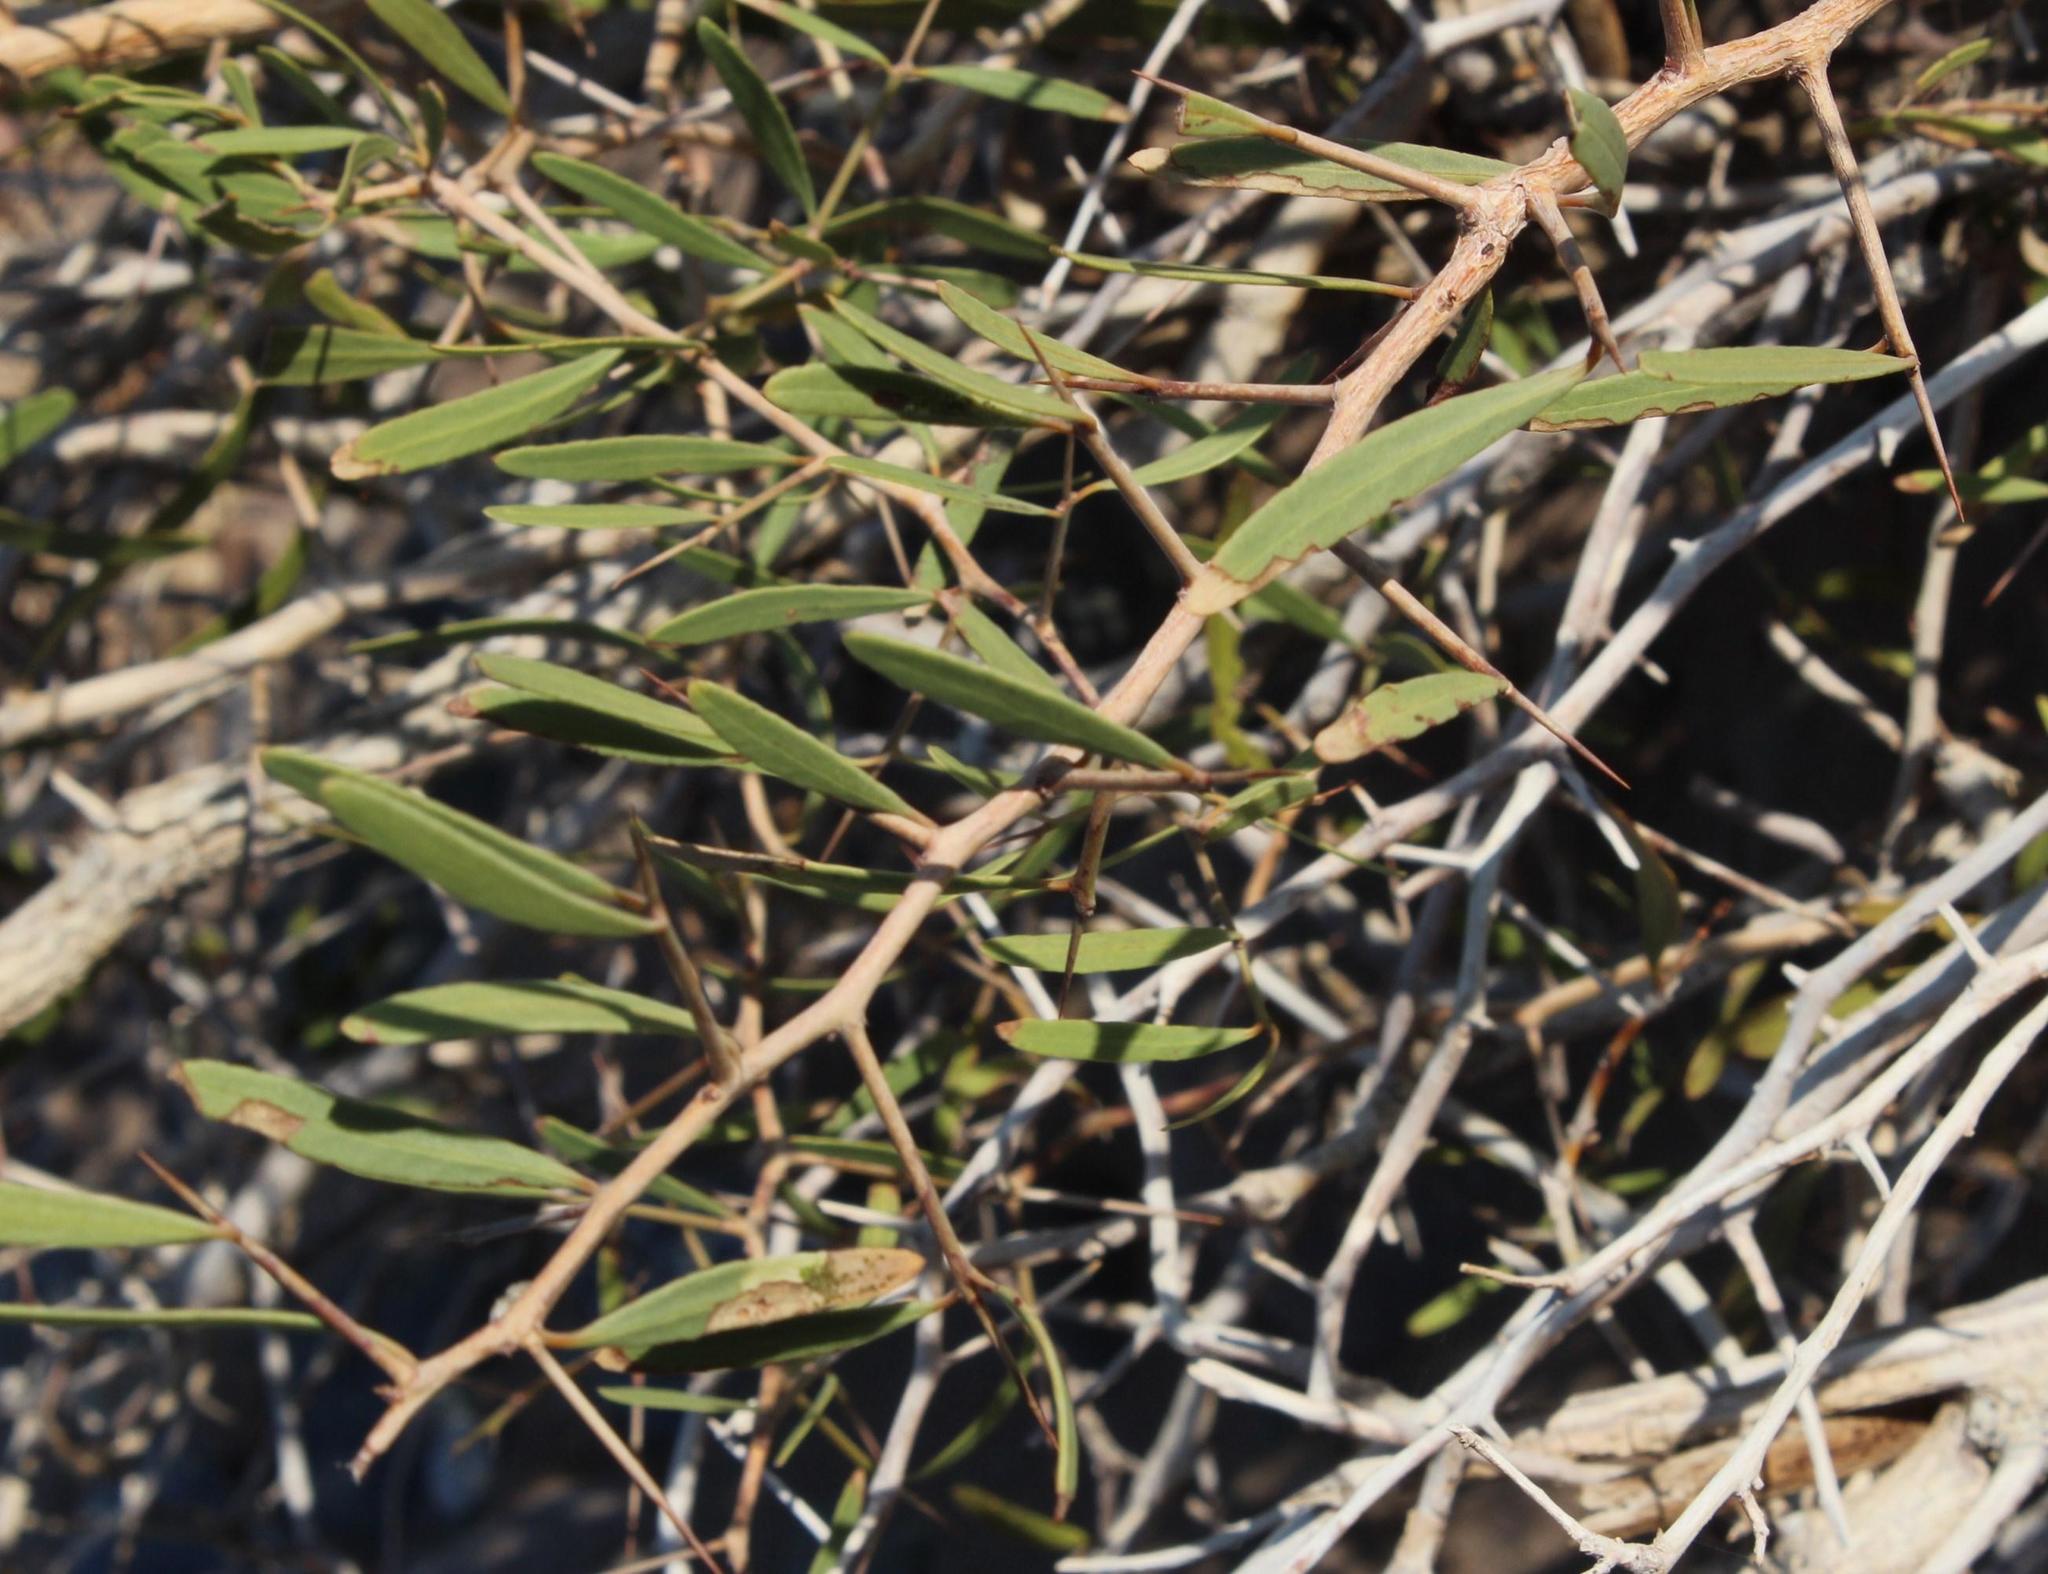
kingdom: Plantae
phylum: Tracheophyta
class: Magnoliopsida
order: Celastrales
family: Celastraceae
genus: Gymnosporia
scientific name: Gymnosporia linearis
